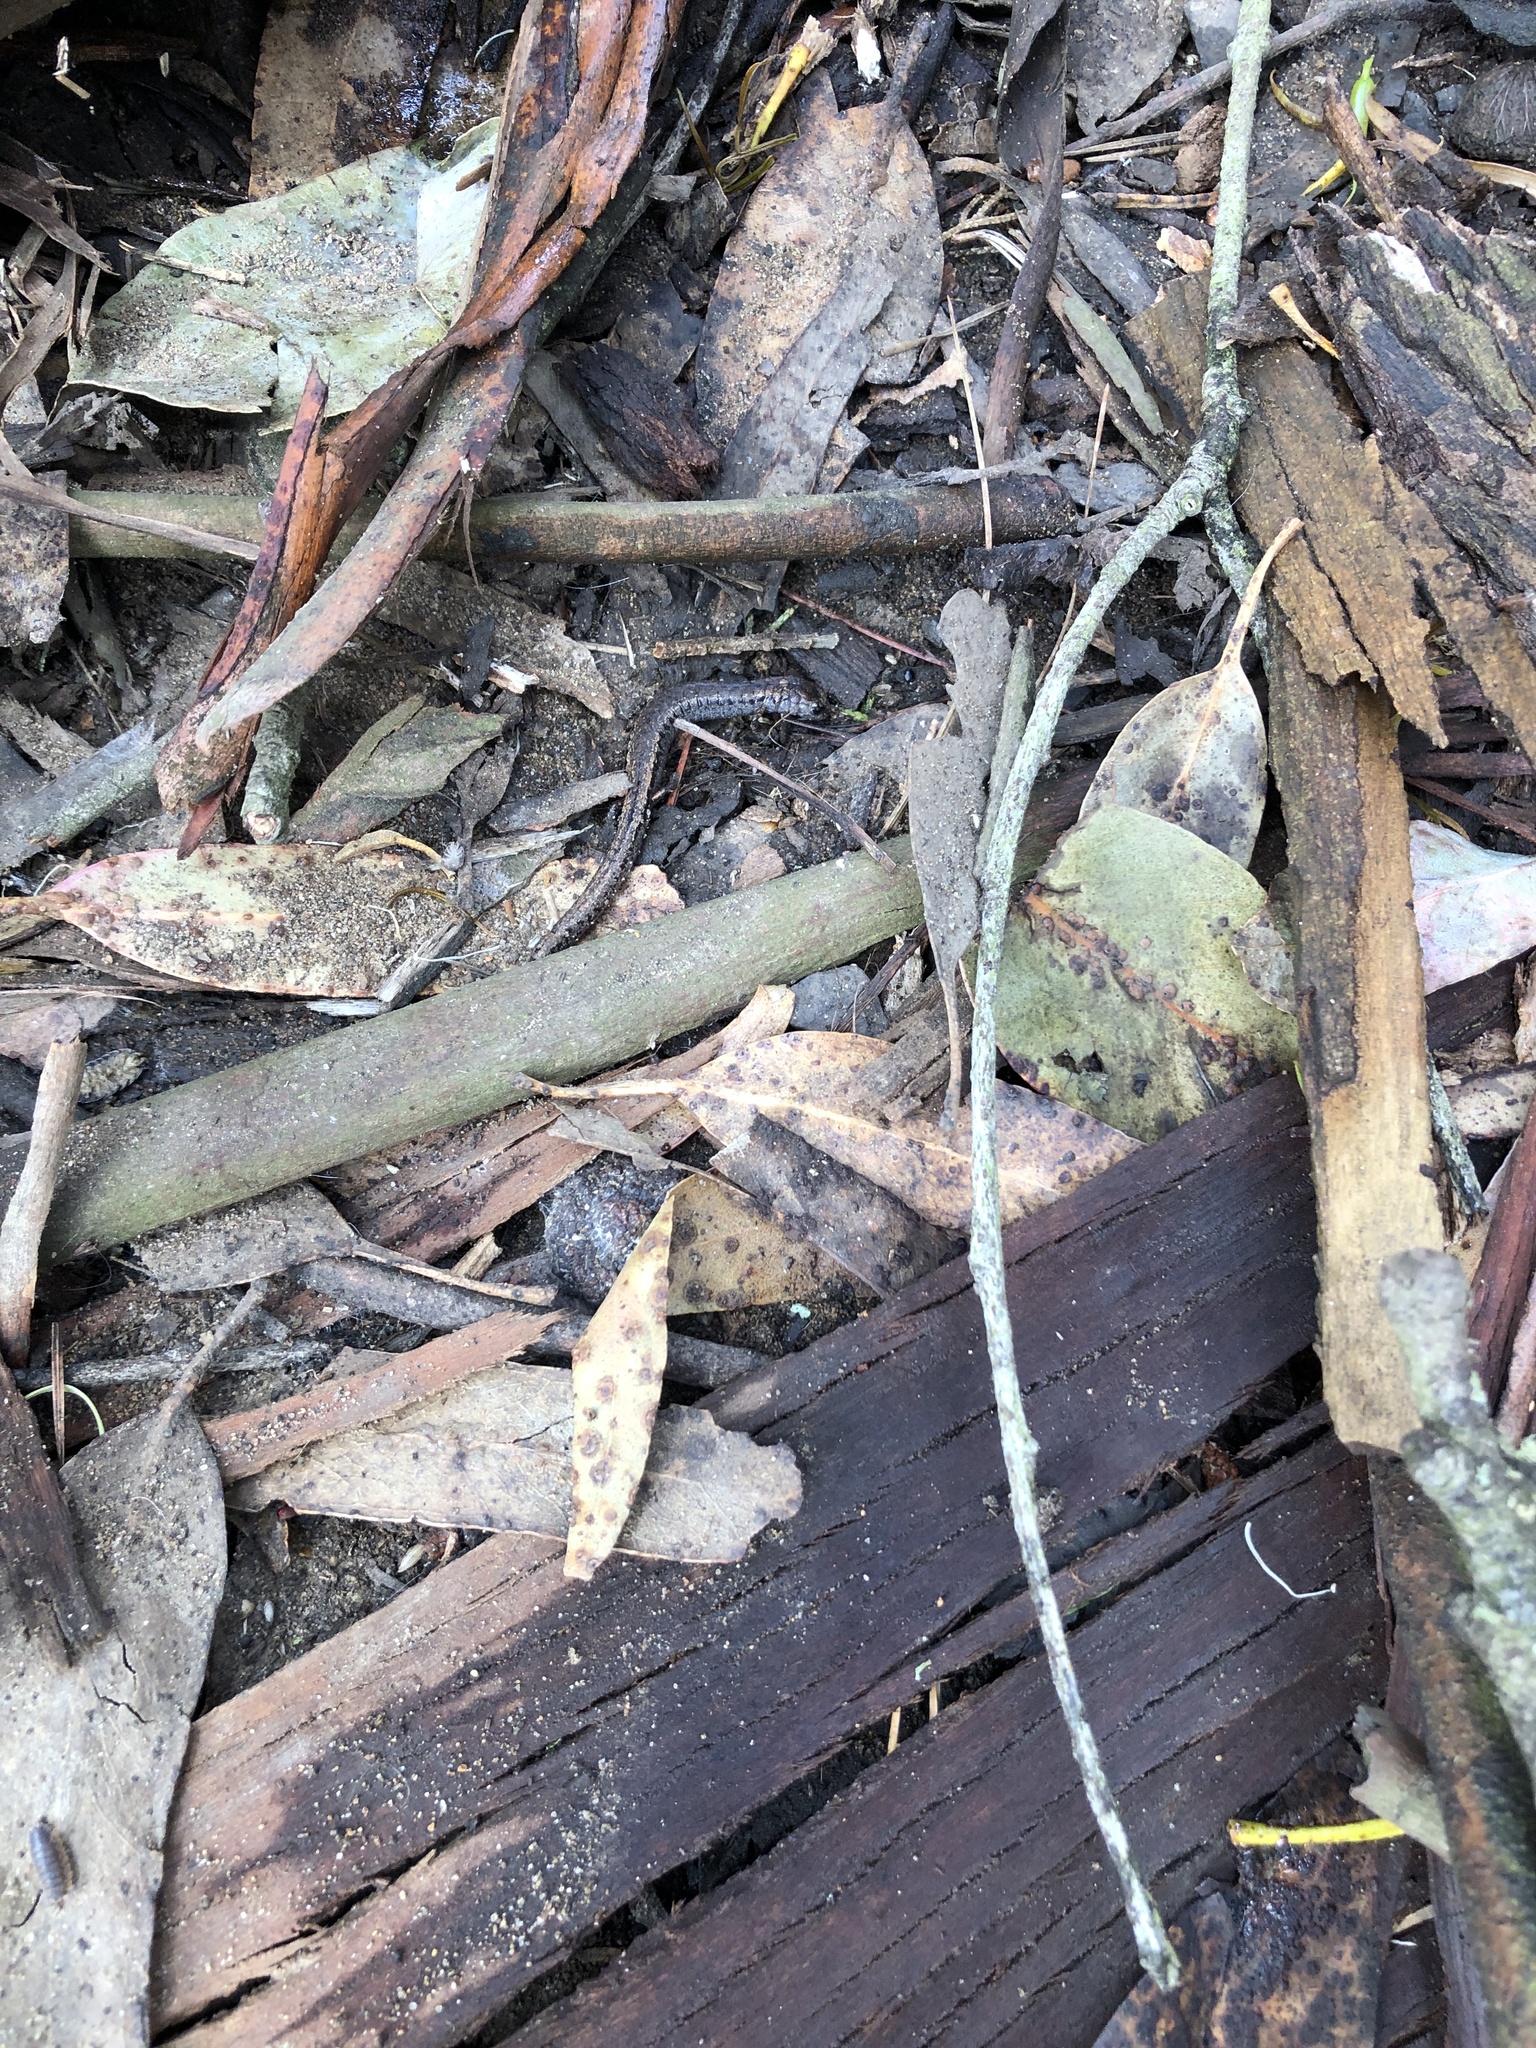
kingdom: Animalia
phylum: Chordata
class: Amphibia
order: Caudata
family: Plethodontidae
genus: Batrachoseps
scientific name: Batrachoseps attenuatus
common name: California slender salamander
